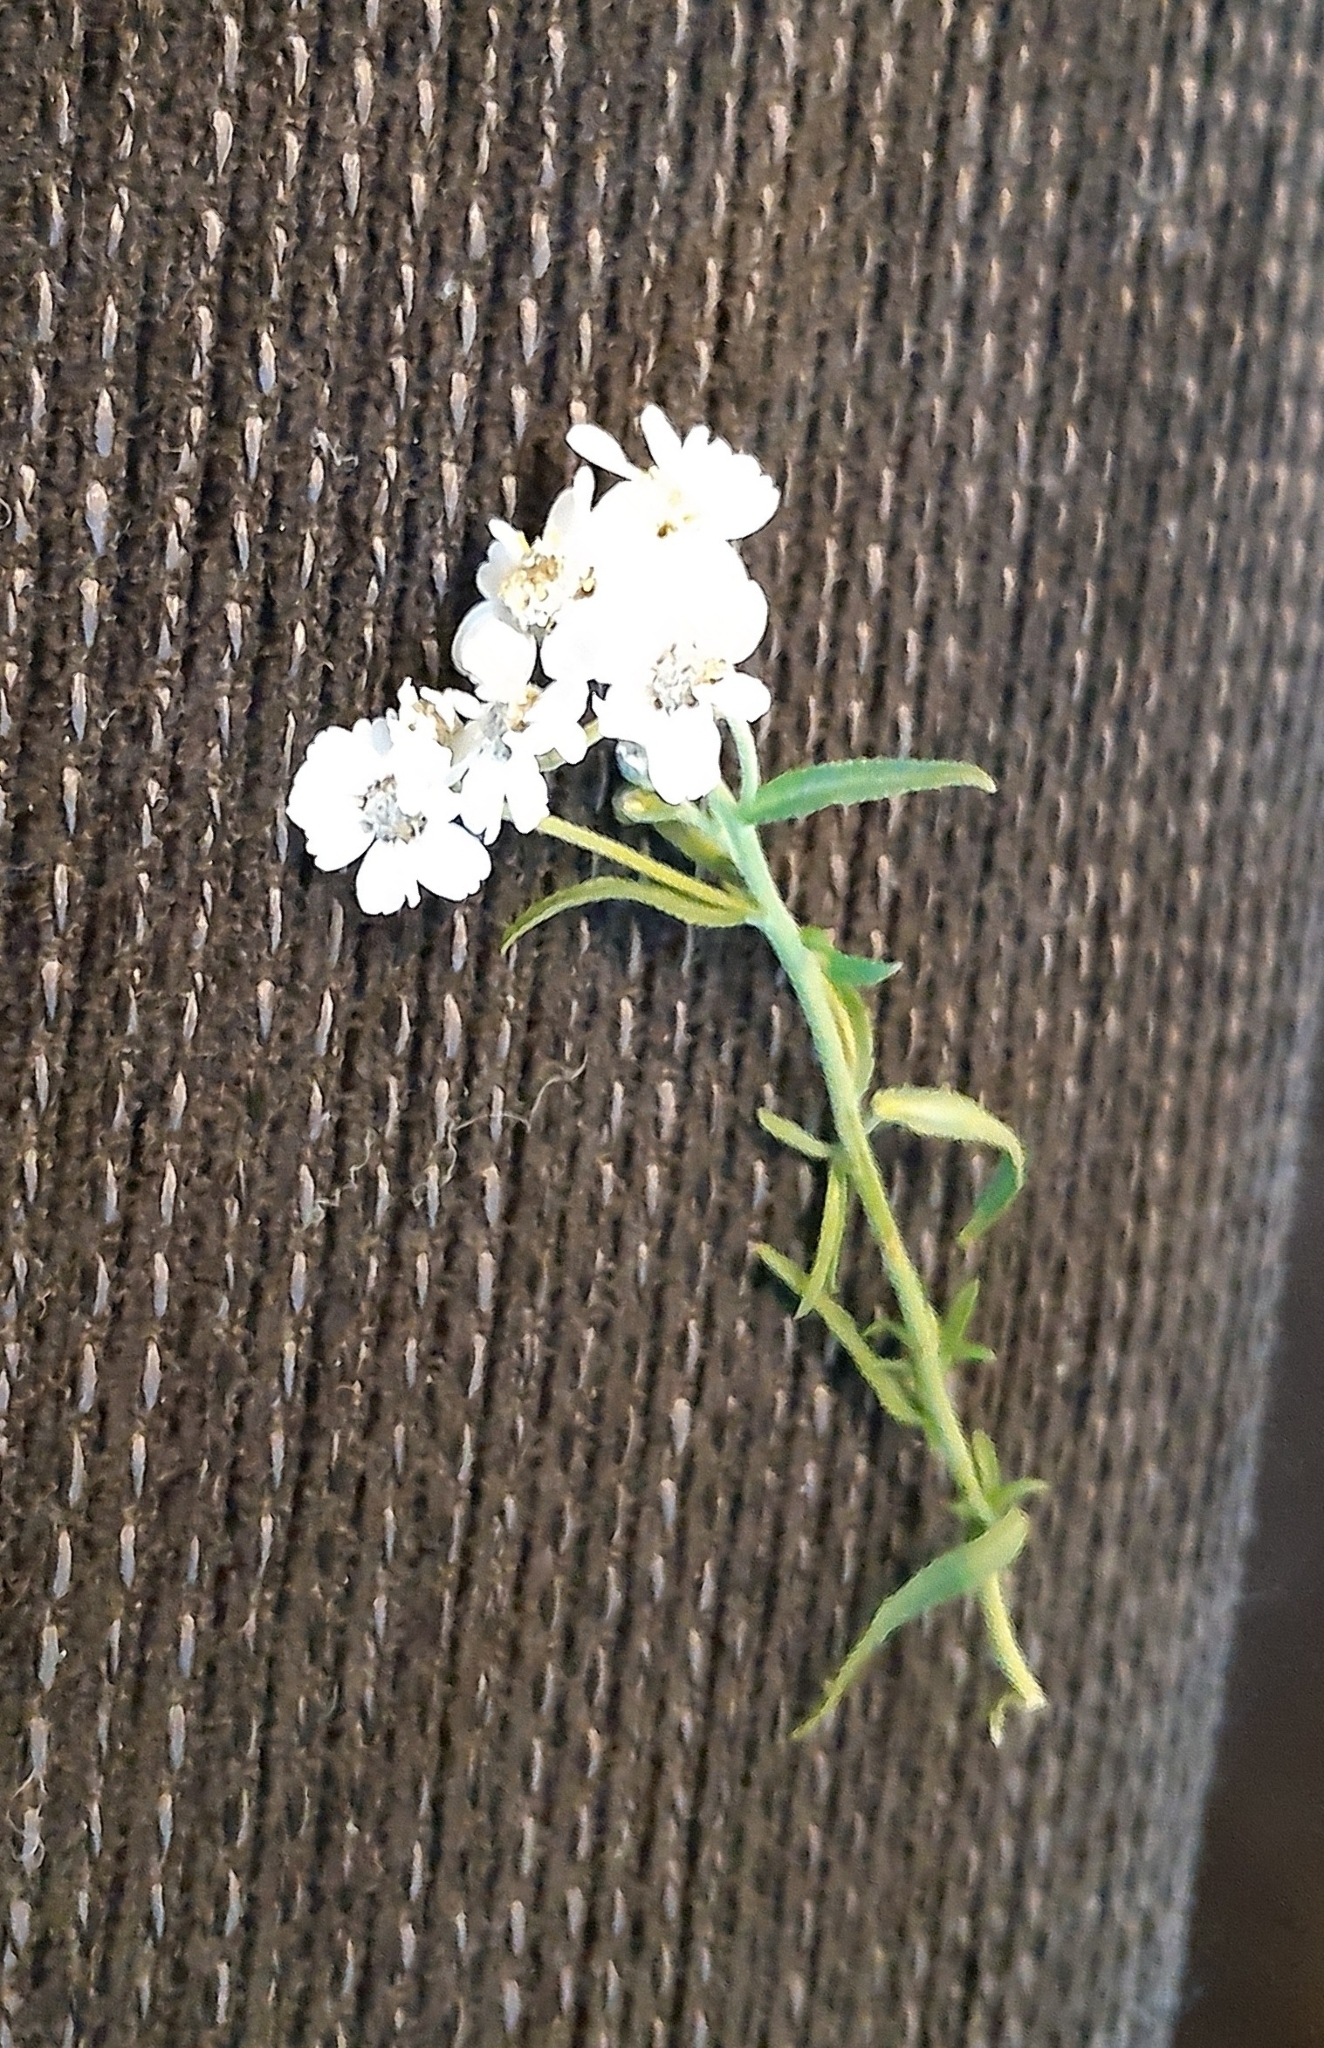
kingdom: Plantae
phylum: Tracheophyta
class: Magnoliopsida
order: Asterales
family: Asteraceae
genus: Achillea
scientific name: Achillea ptarmica
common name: Sneezeweed
